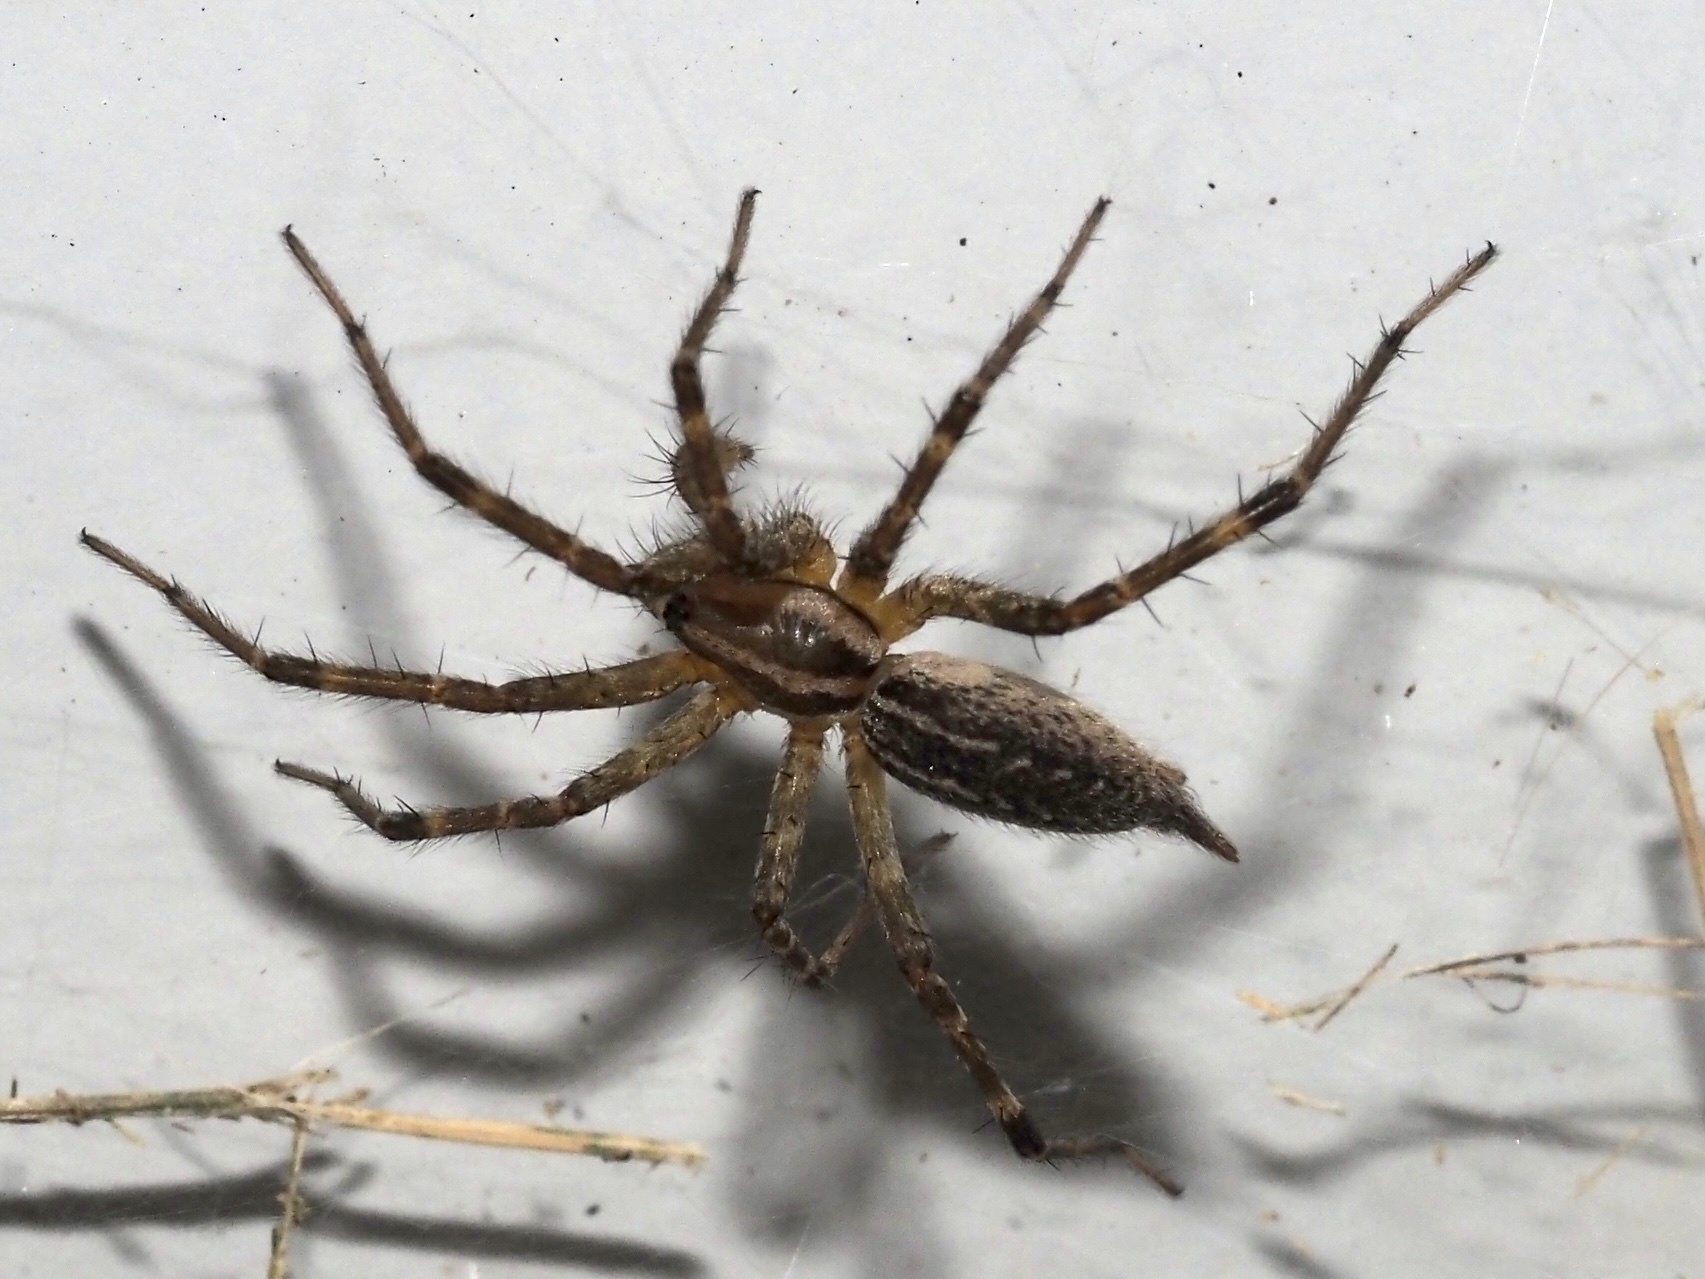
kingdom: Animalia
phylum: Arthropoda
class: Arachnida
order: Araneae
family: Agelenidae
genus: Agelenopsis
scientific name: Agelenopsis
